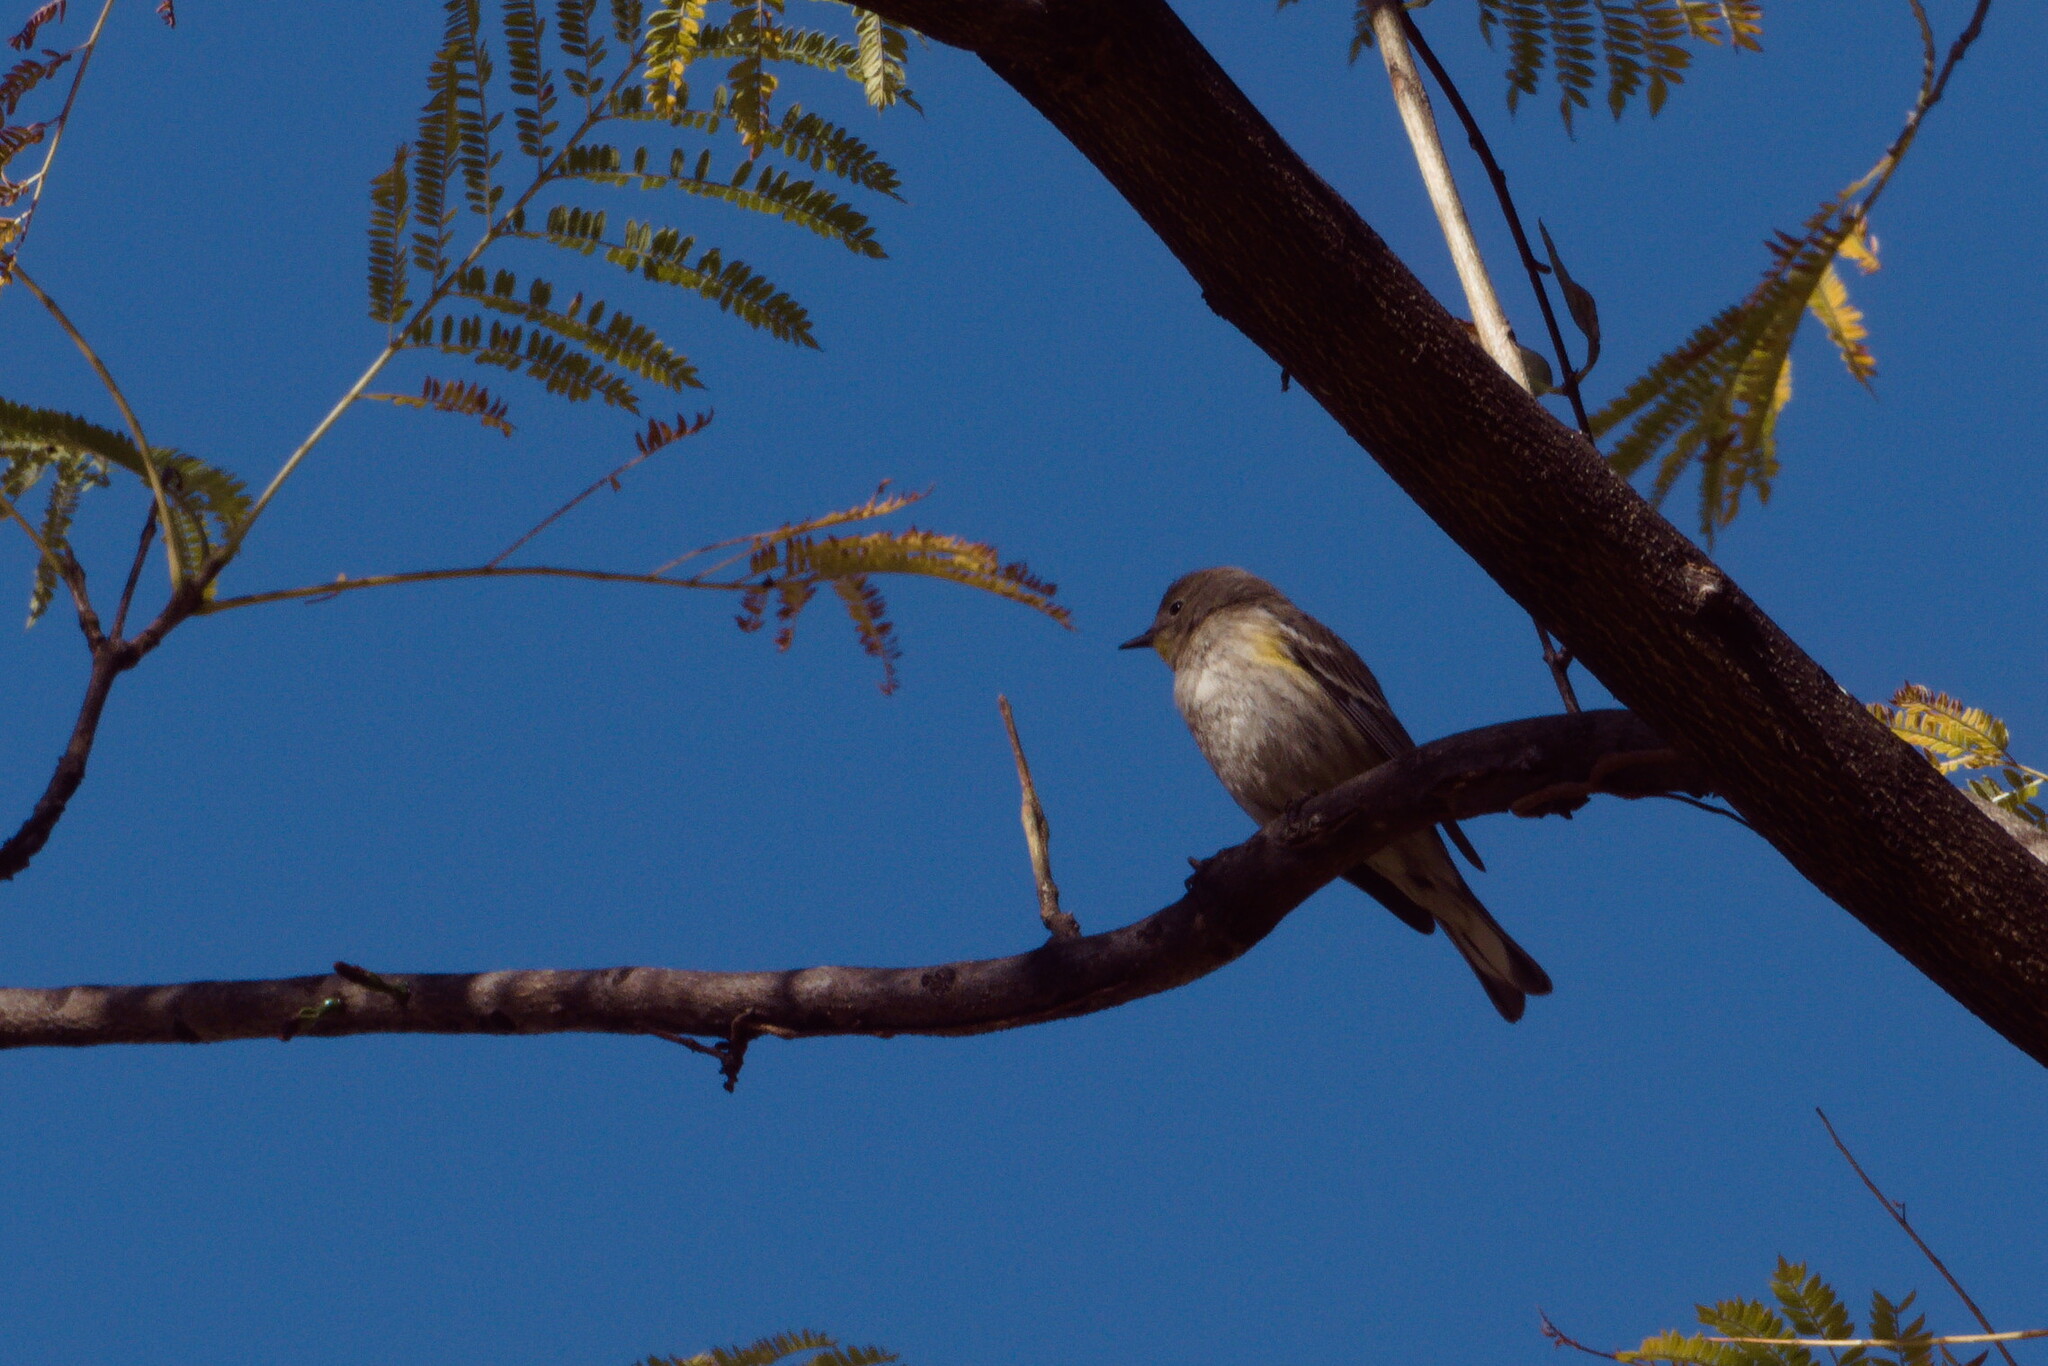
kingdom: Animalia
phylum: Chordata
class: Aves
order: Passeriformes
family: Parulidae
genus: Setophaga
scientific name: Setophaga coronata
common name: Myrtle warbler
